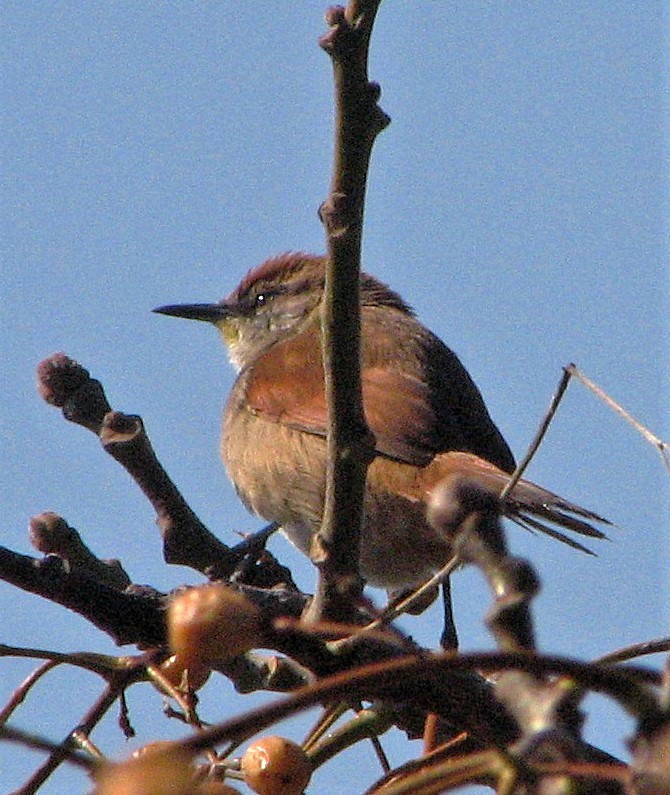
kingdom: Animalia
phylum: Chordata
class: Aves
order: Passeriformes
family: Furnariidae
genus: Certhiaxis
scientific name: Certhiaxis cinnamomeus
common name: Yellow-chinned spinetail
